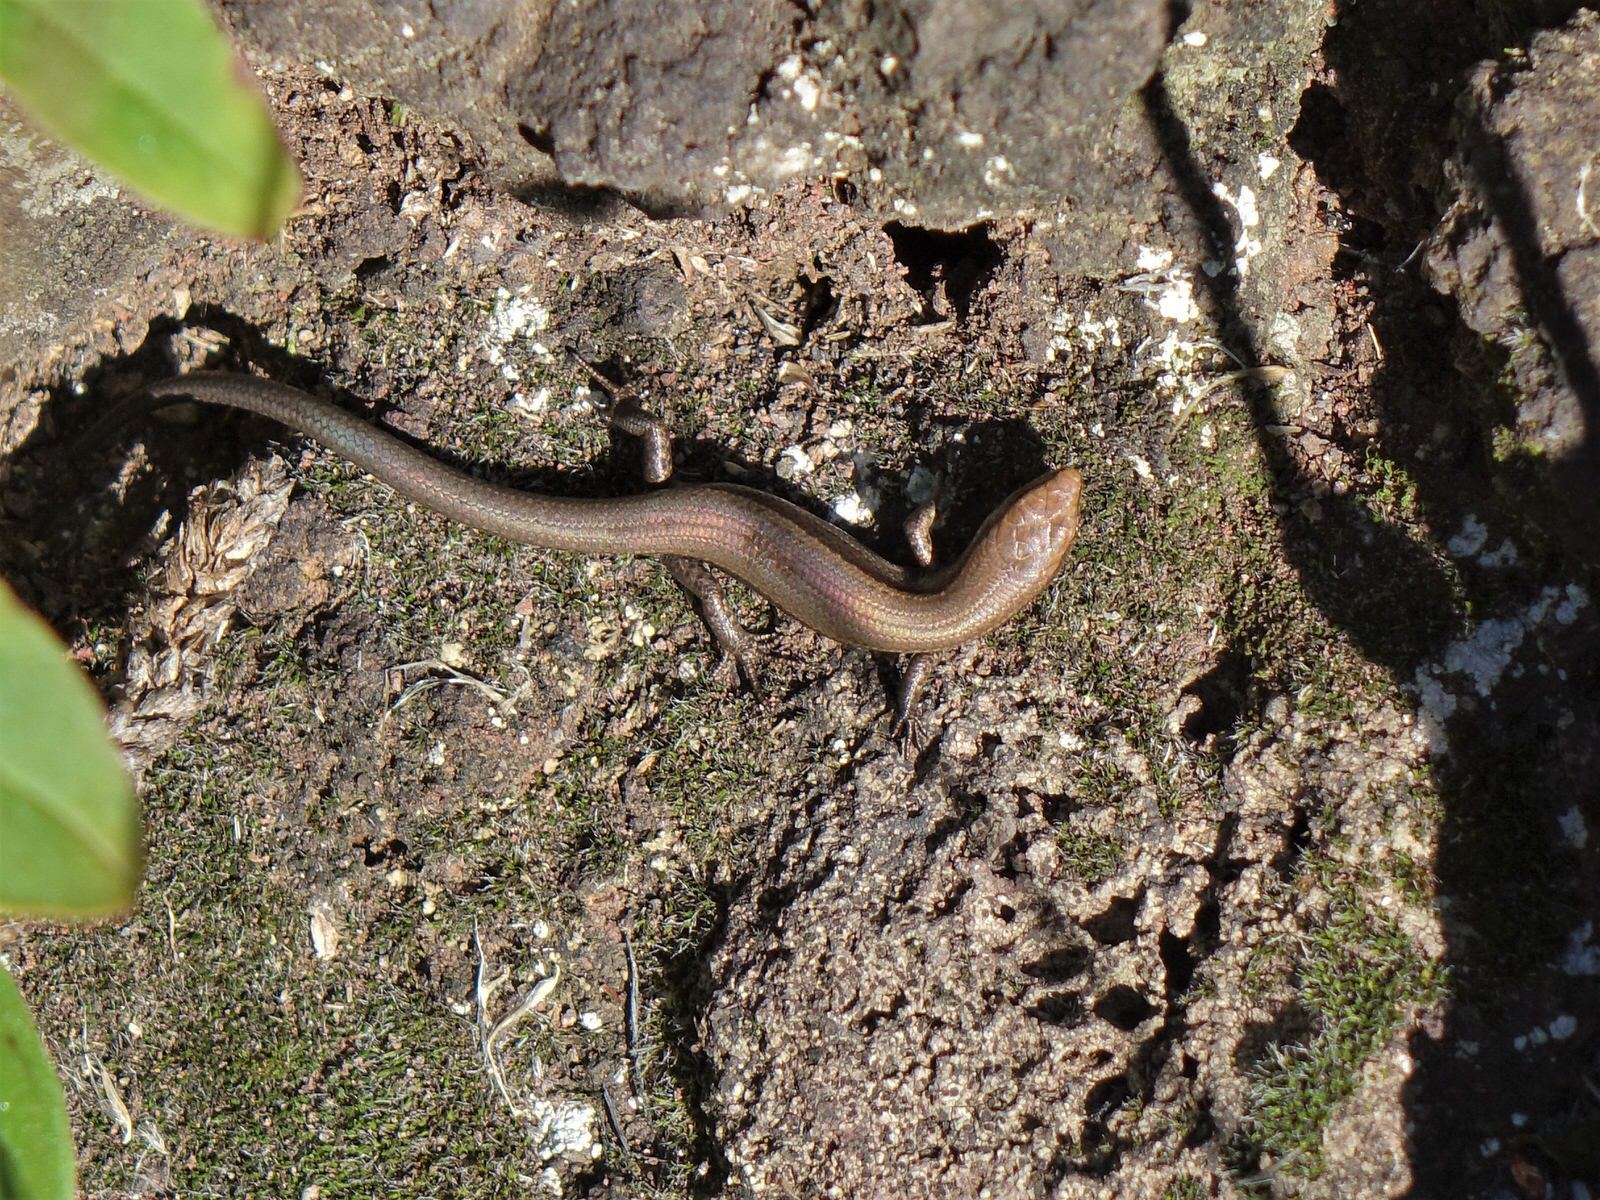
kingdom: Animalia
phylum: Chordata
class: Squamata
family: Scincidae
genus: Lampropholis
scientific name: Lampropholis delicata
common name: Plague skink
